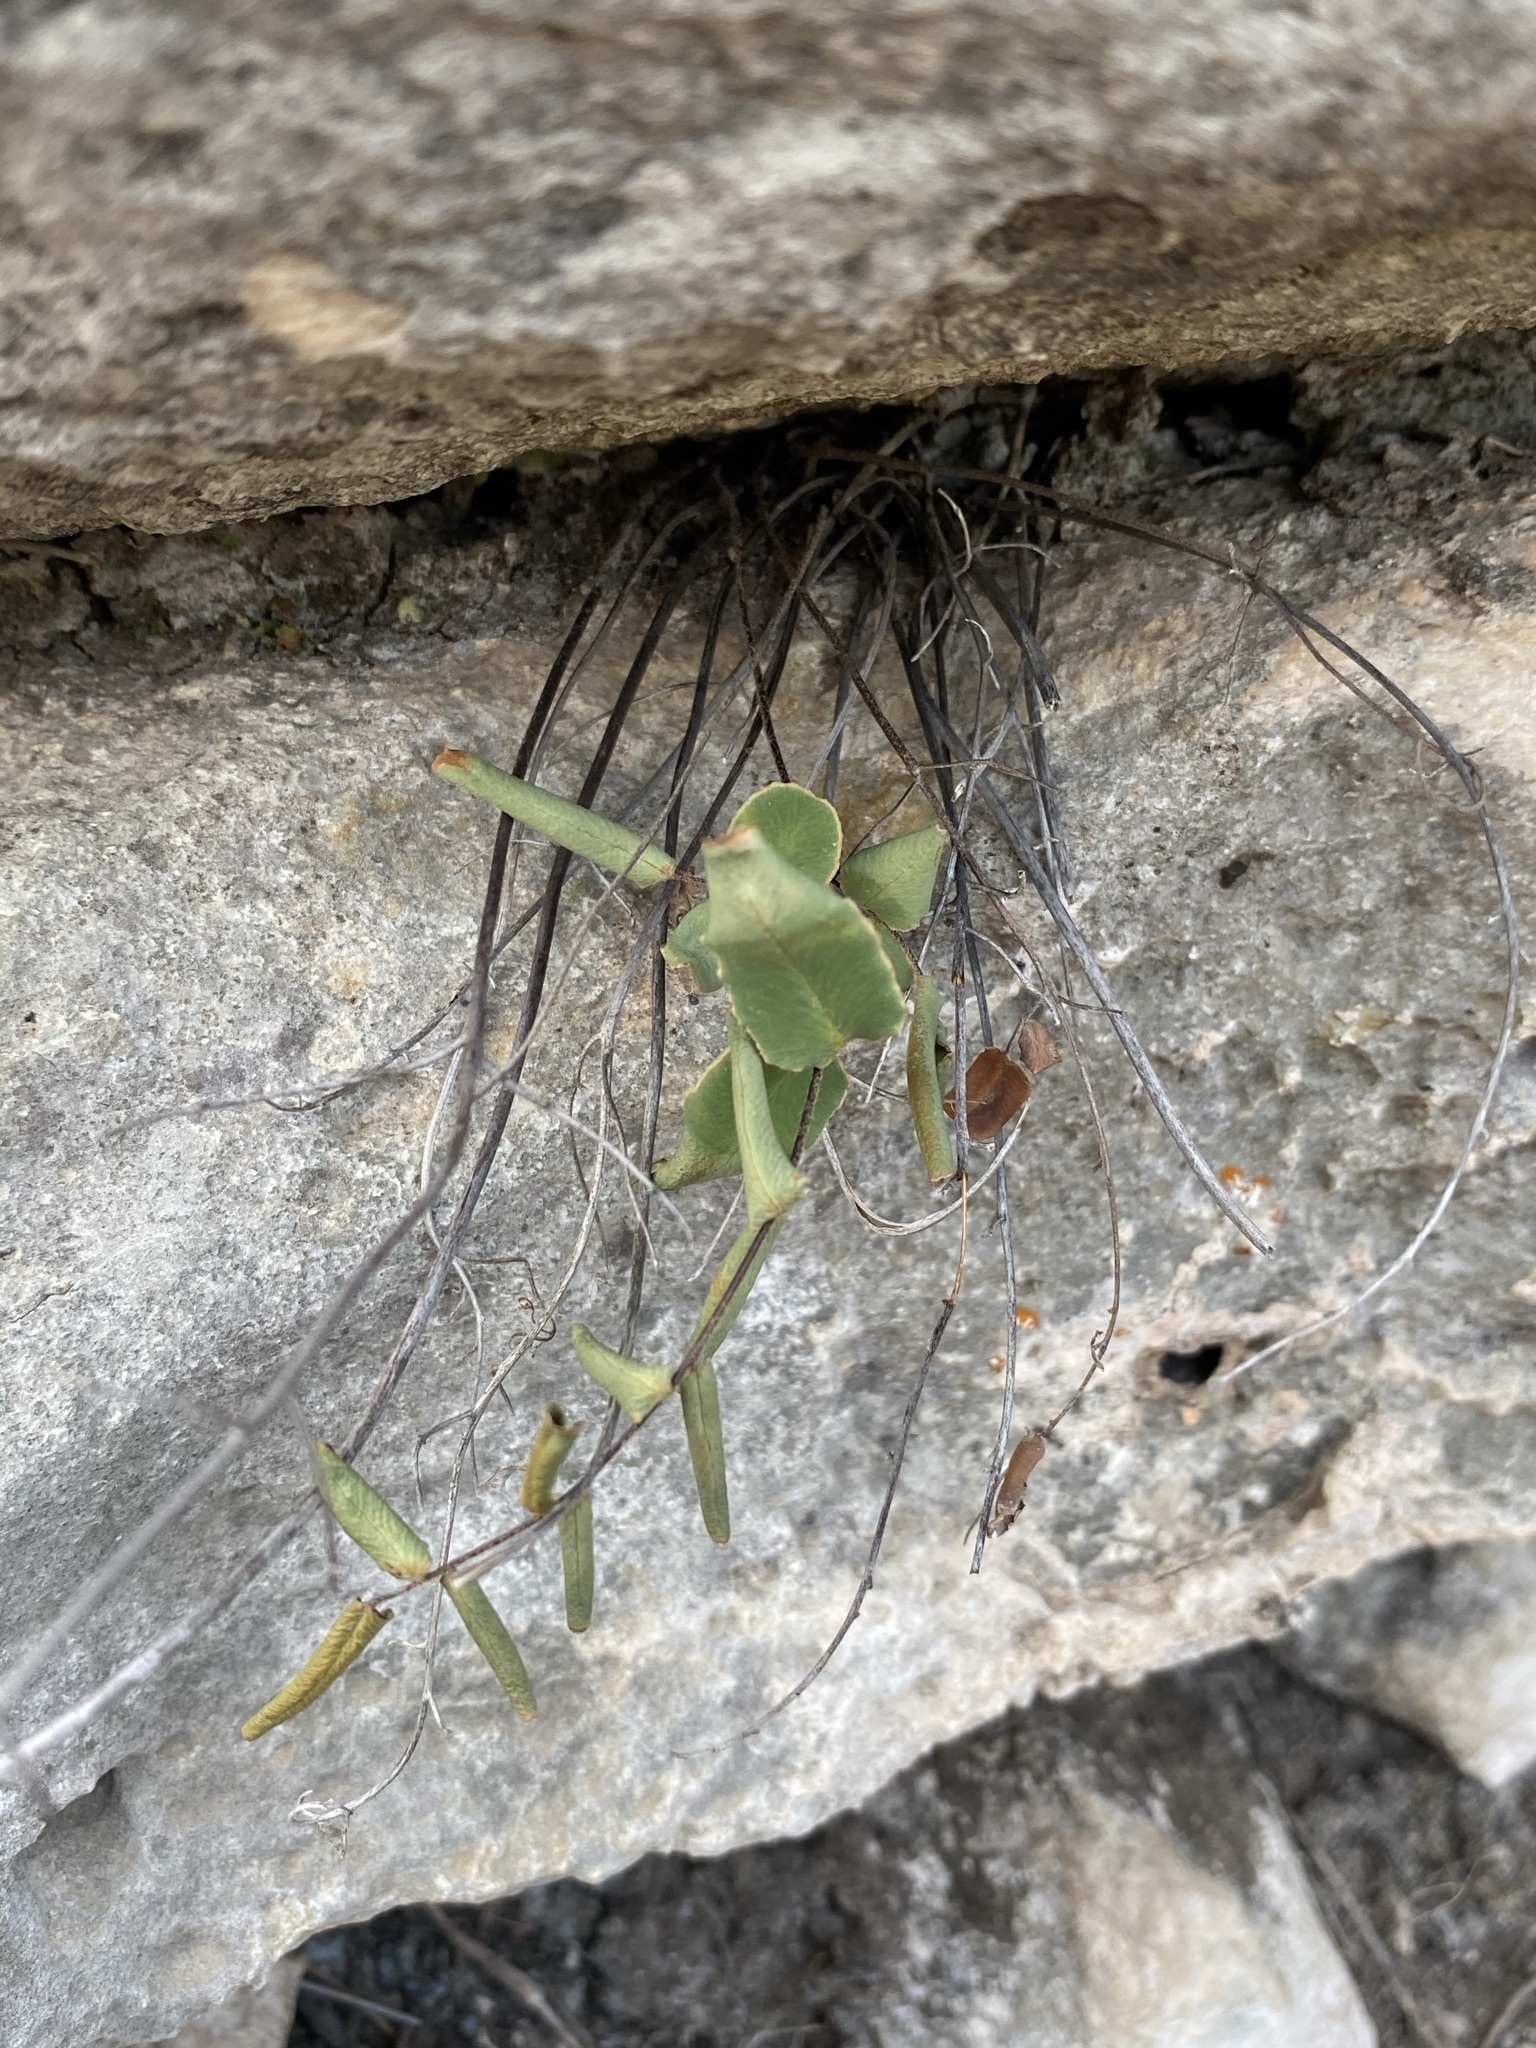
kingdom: Plantae
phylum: Tracheophyta
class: Polypodiopsida
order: Polypodiales
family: Pteridaceae
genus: Pellaea
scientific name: Pellaea atropurpurea
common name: Hairy cliffbrake
